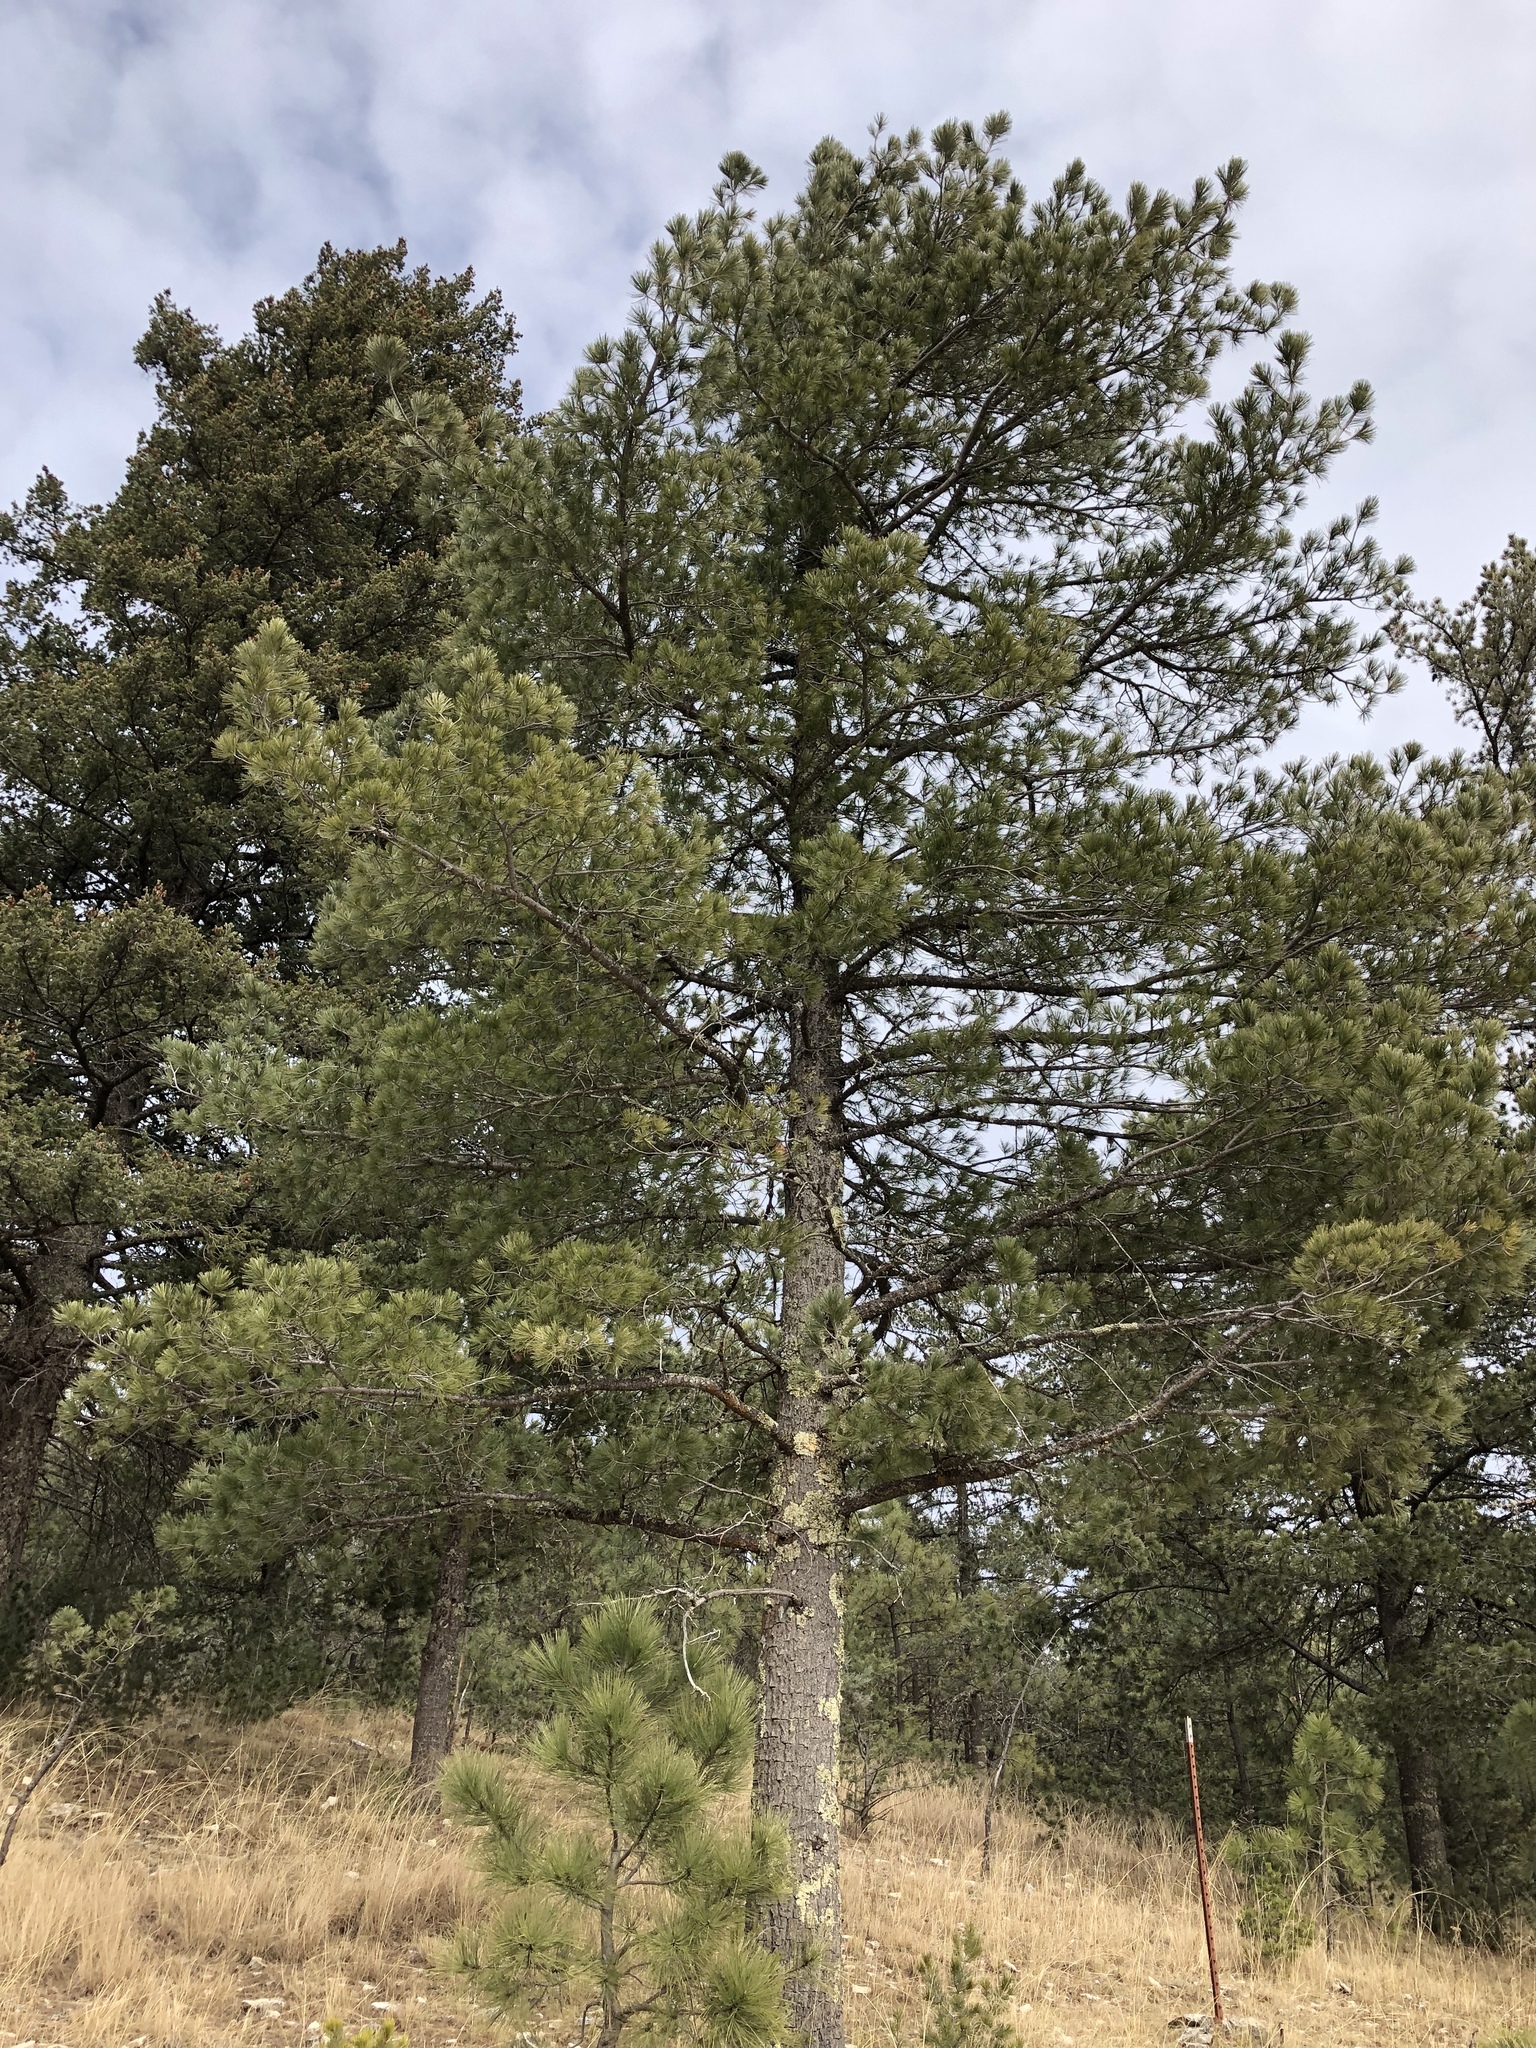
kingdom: Plantae
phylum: Tracheophyta
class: Pinopsida
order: Pinales
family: Pinaceae
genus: Pinus
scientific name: Pinus strobiformis
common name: Southwestern white pine
